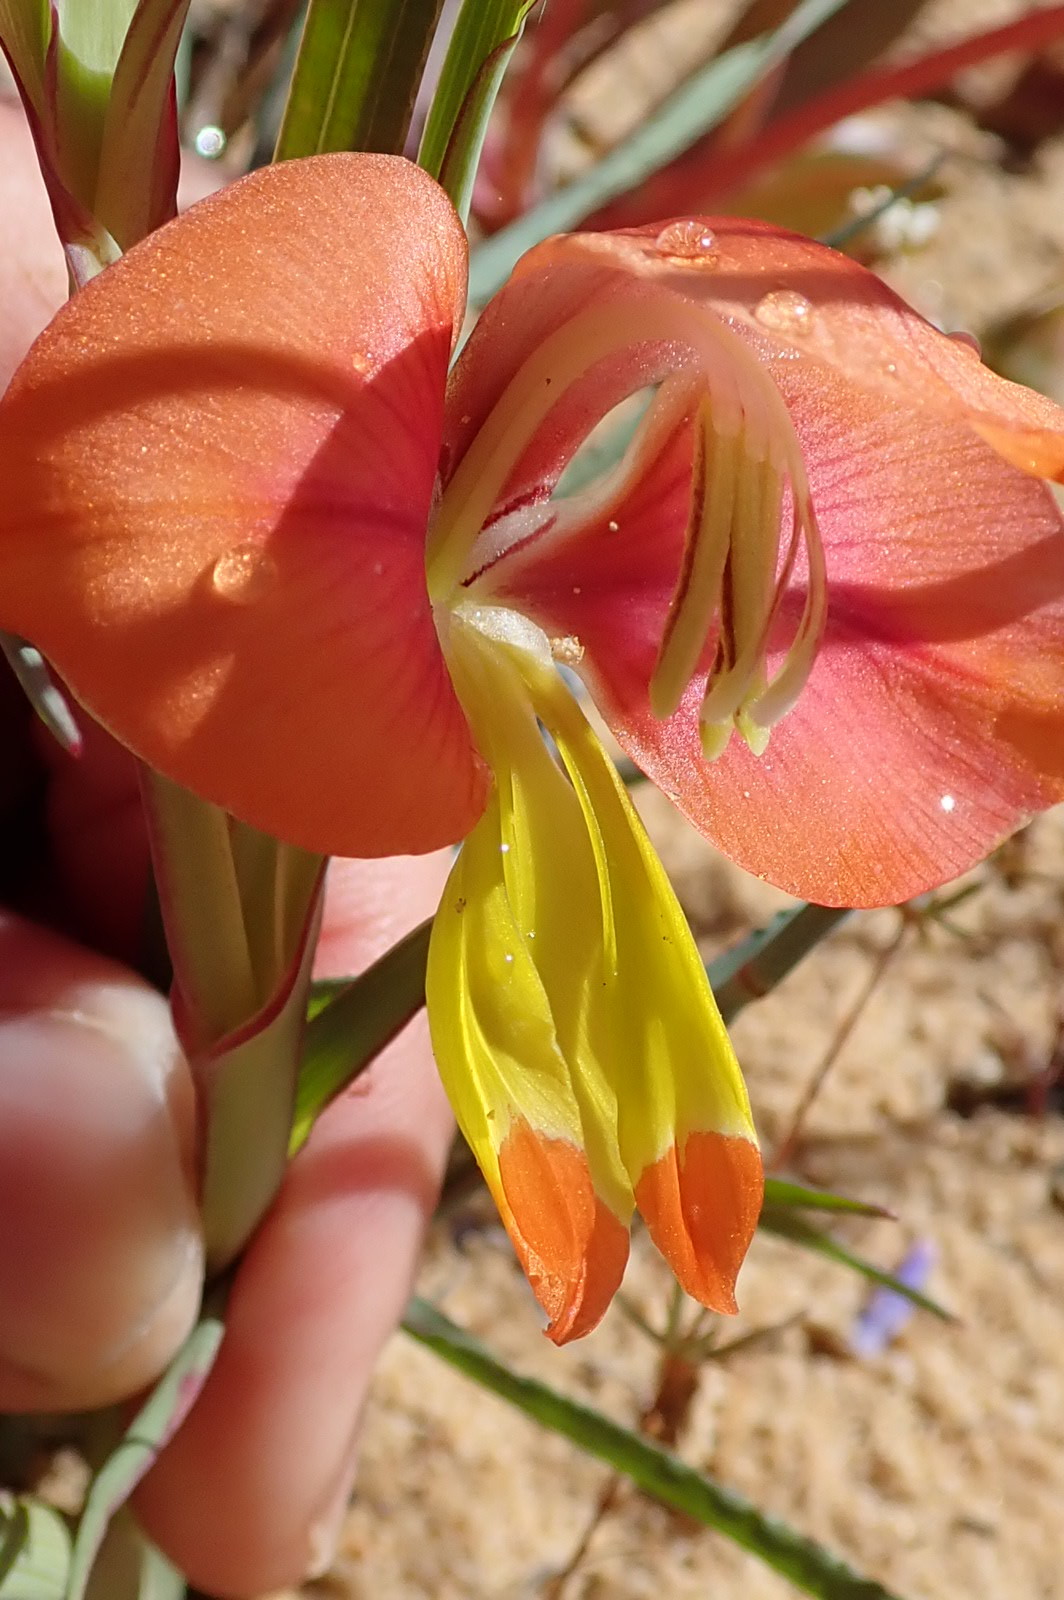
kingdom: Plantae
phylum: Tracheophyta
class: Liliopsida
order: Asparagales
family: Iridaceae
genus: Gladiolus
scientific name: Gladiolus speciosus
